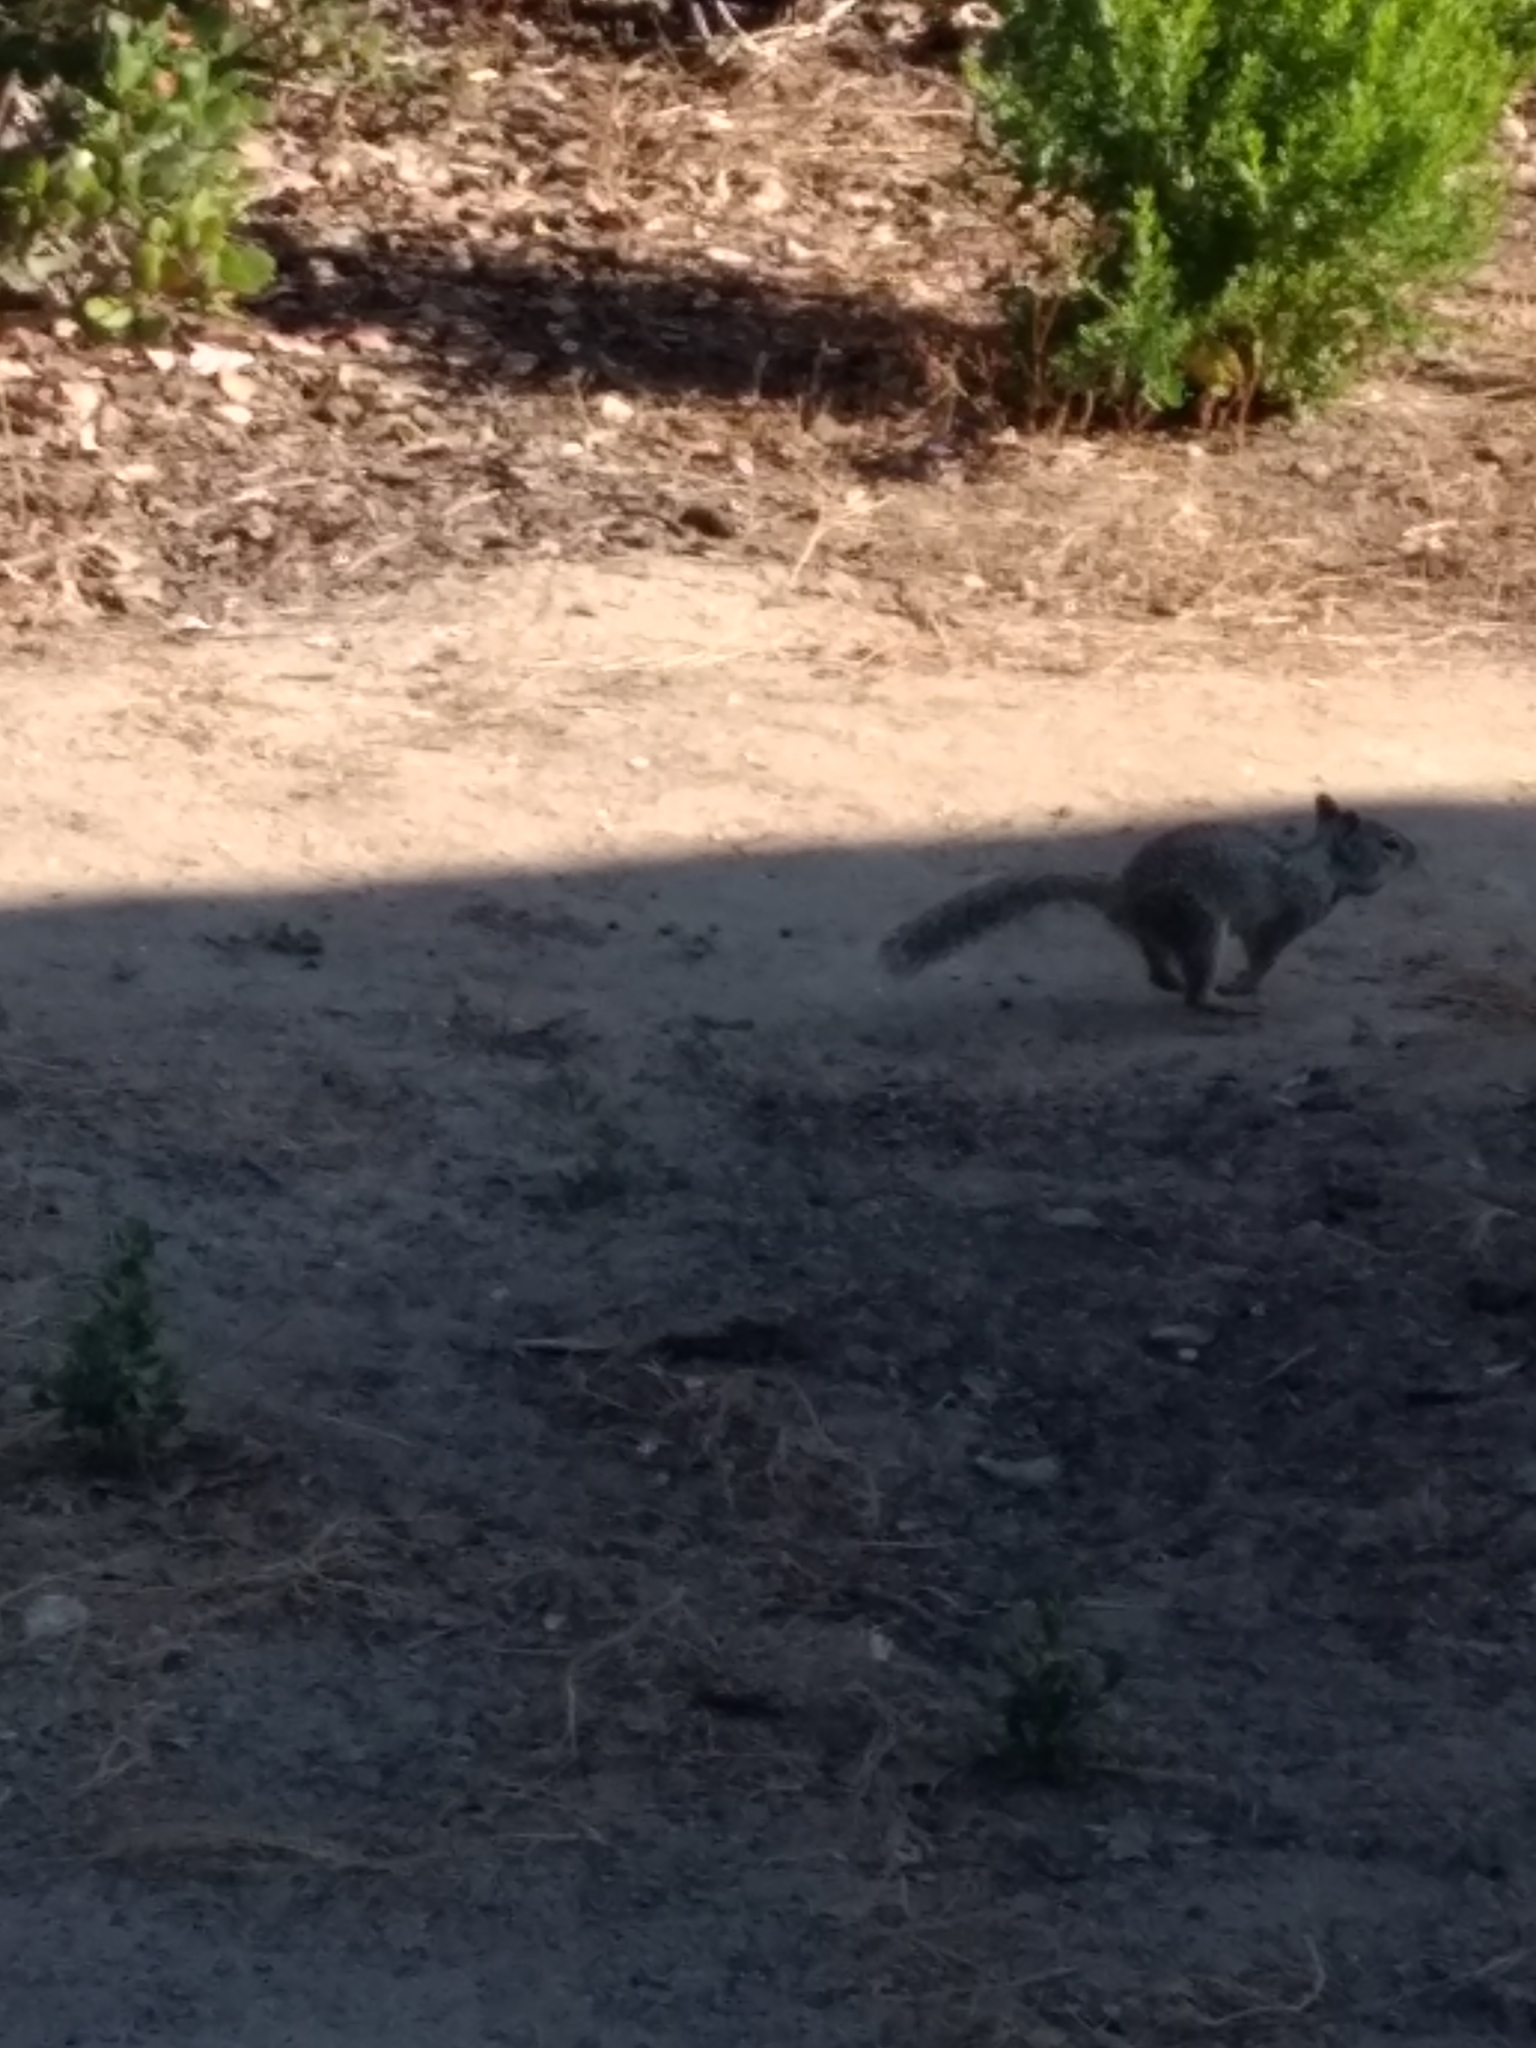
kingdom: Animalia
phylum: Chordata
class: Mammalia
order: Rodentia
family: Sciuridae
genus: Otospermophilus
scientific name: Otospermophilus beecheyi
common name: California ground squirrel
